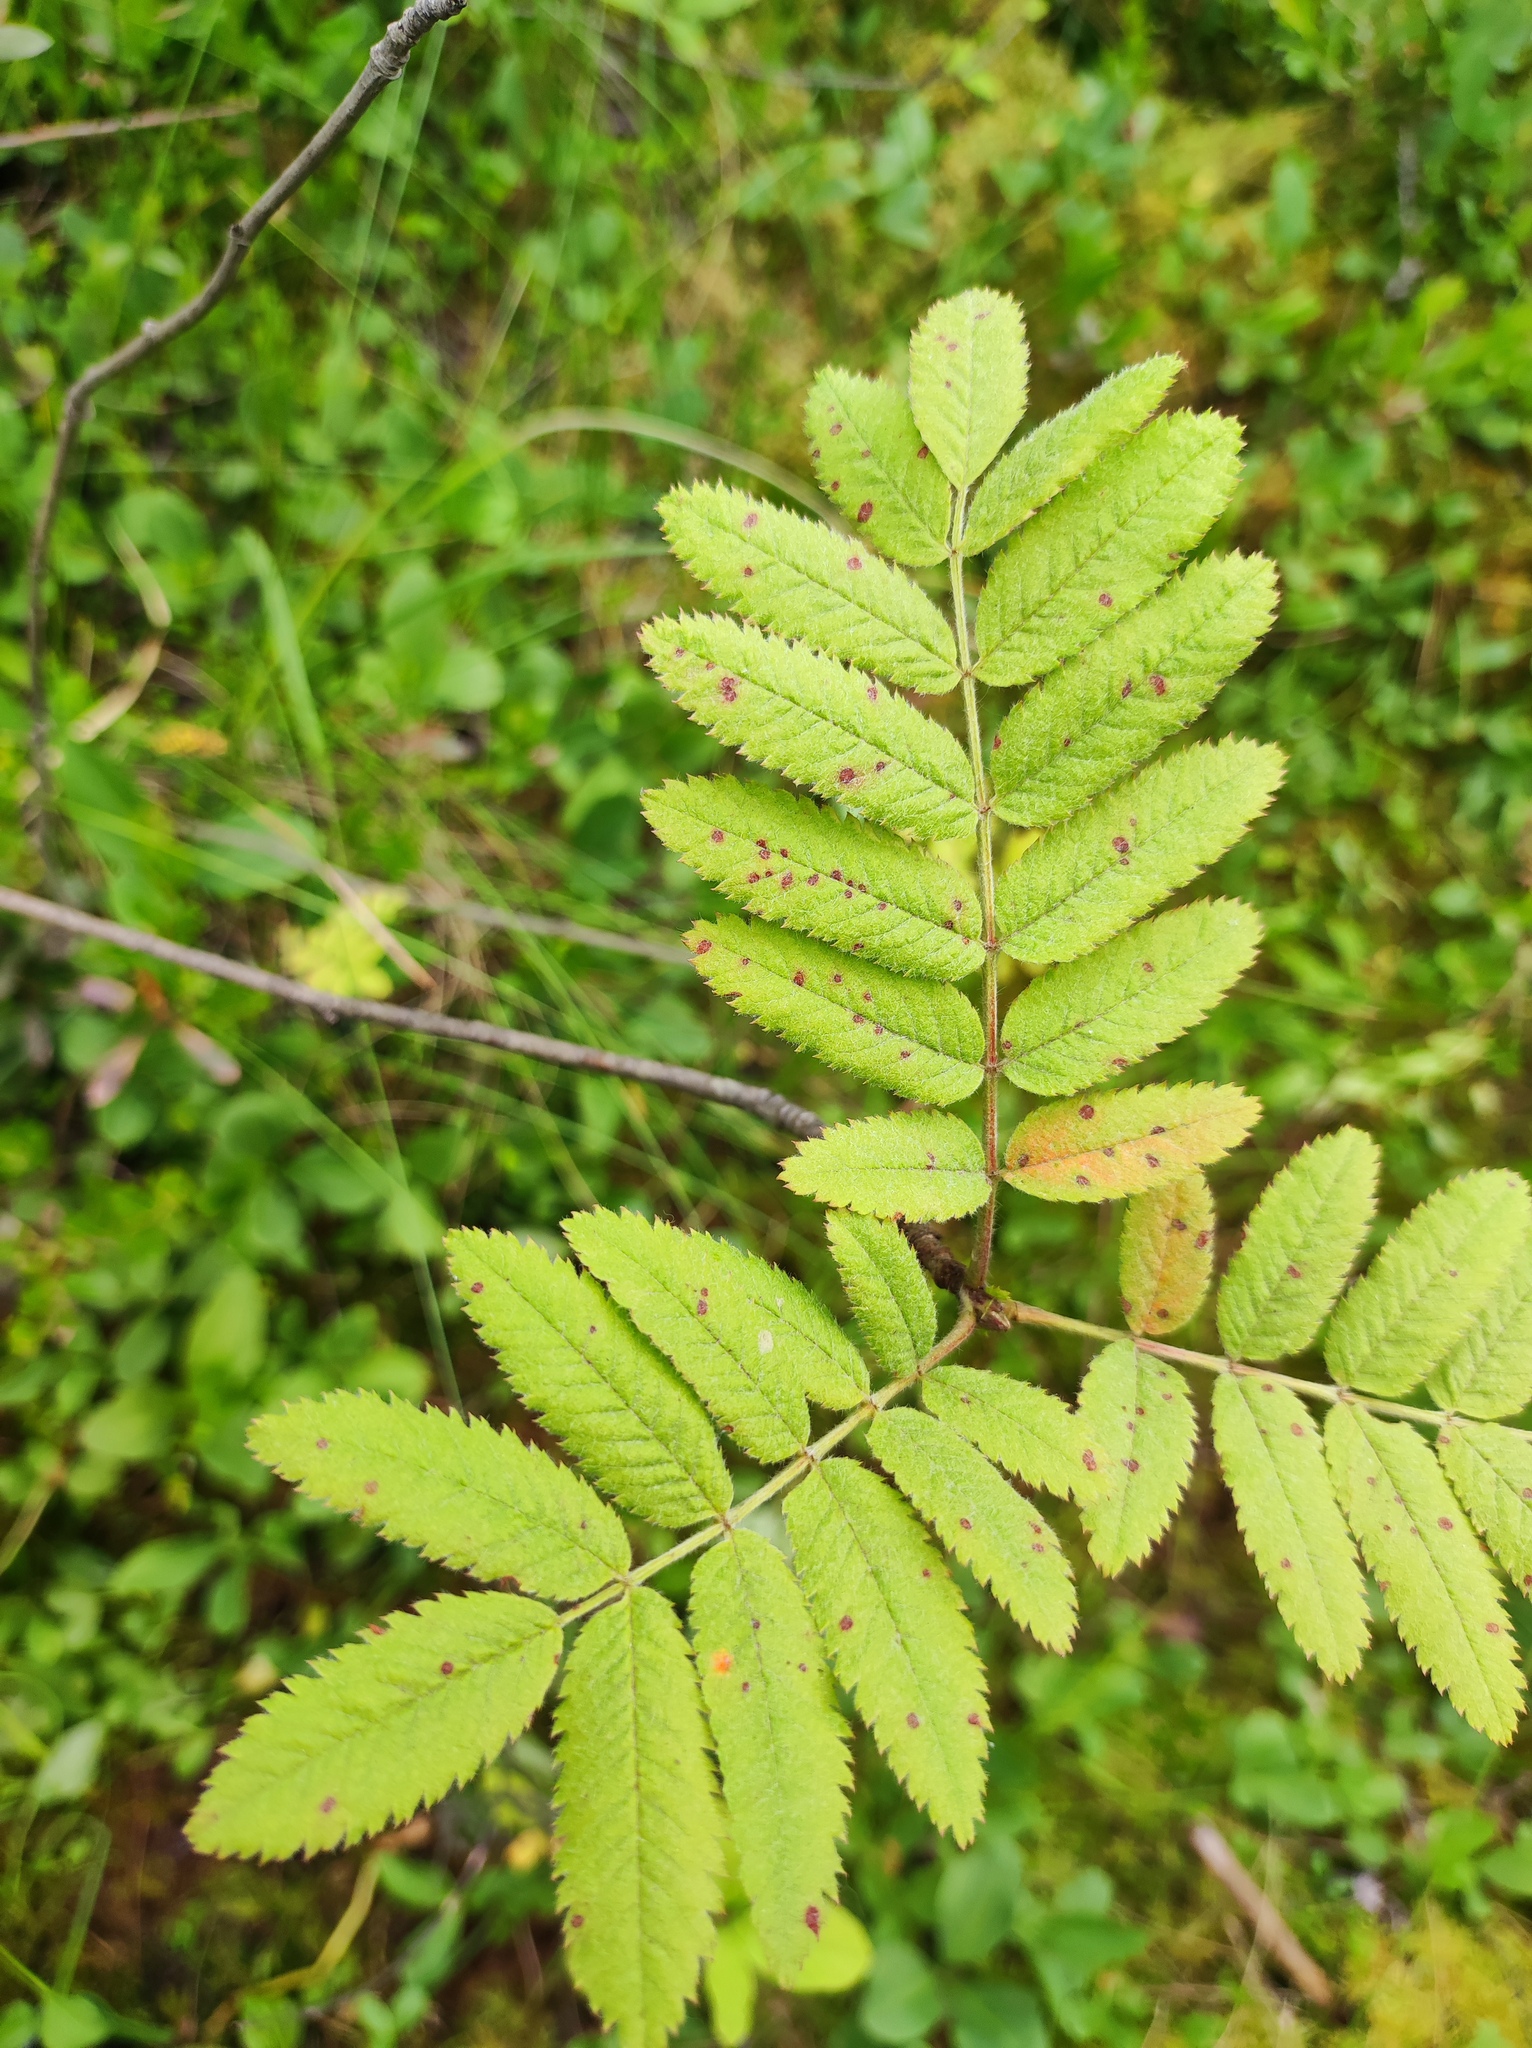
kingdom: Plantae
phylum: Tracheophyta
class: Magnoliopsida
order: Rosales
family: Rosaceae
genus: Sorbus
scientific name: Sorbus aucuparia
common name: Rowan
